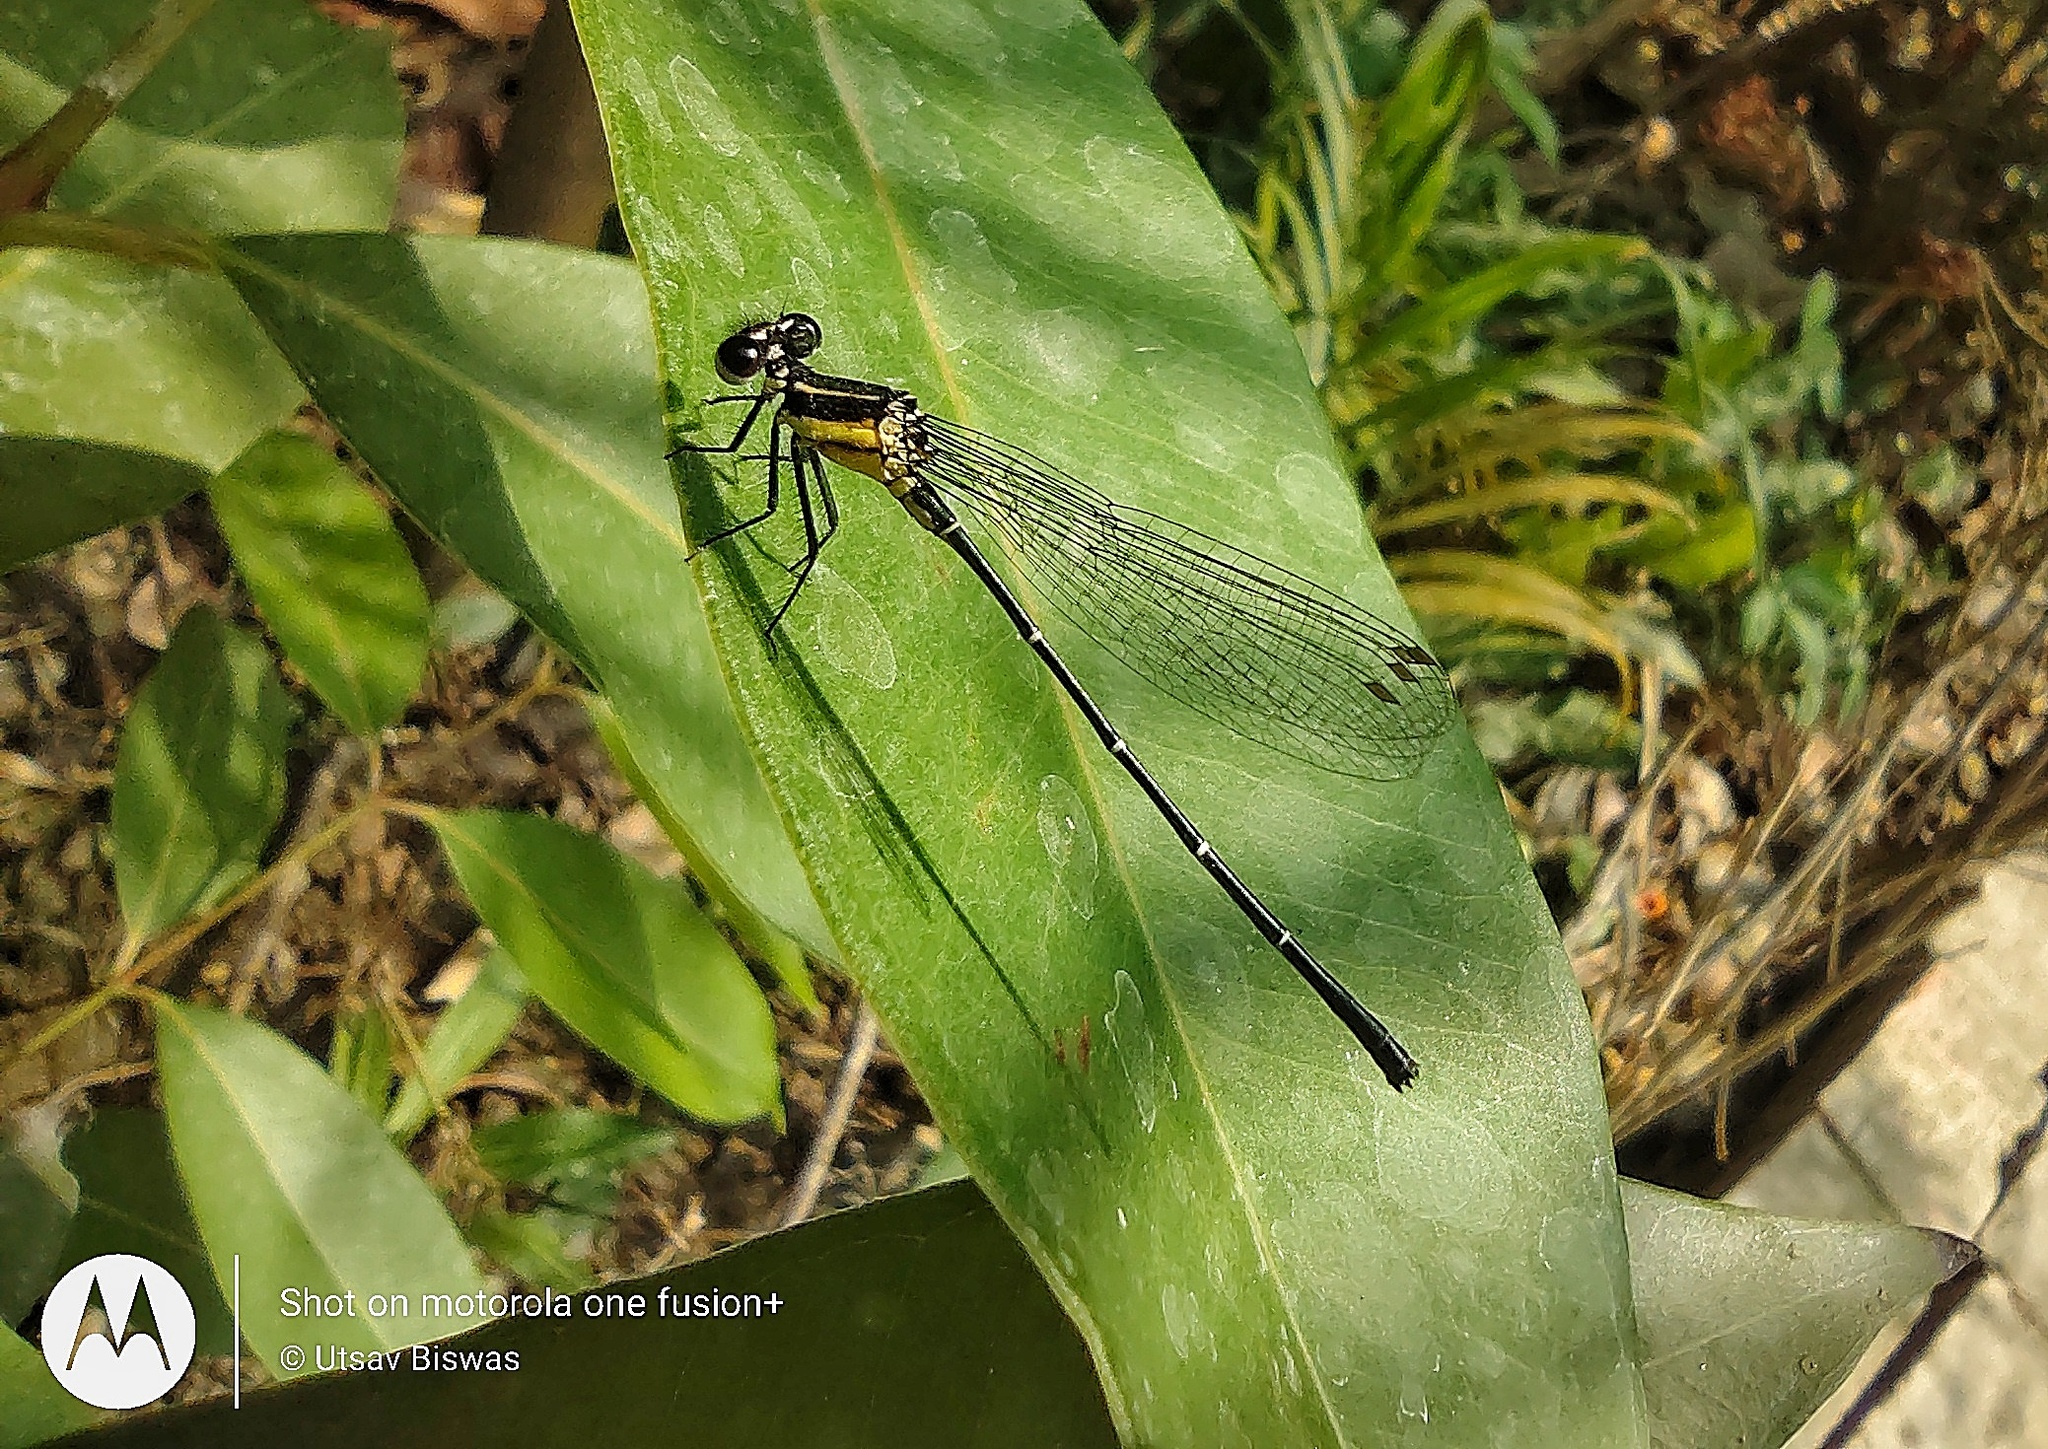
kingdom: Animalia
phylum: Arthropoda
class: Insecta
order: Odonata
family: Platycnemididae
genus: Onychargia
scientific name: Onychargia atrocyana
